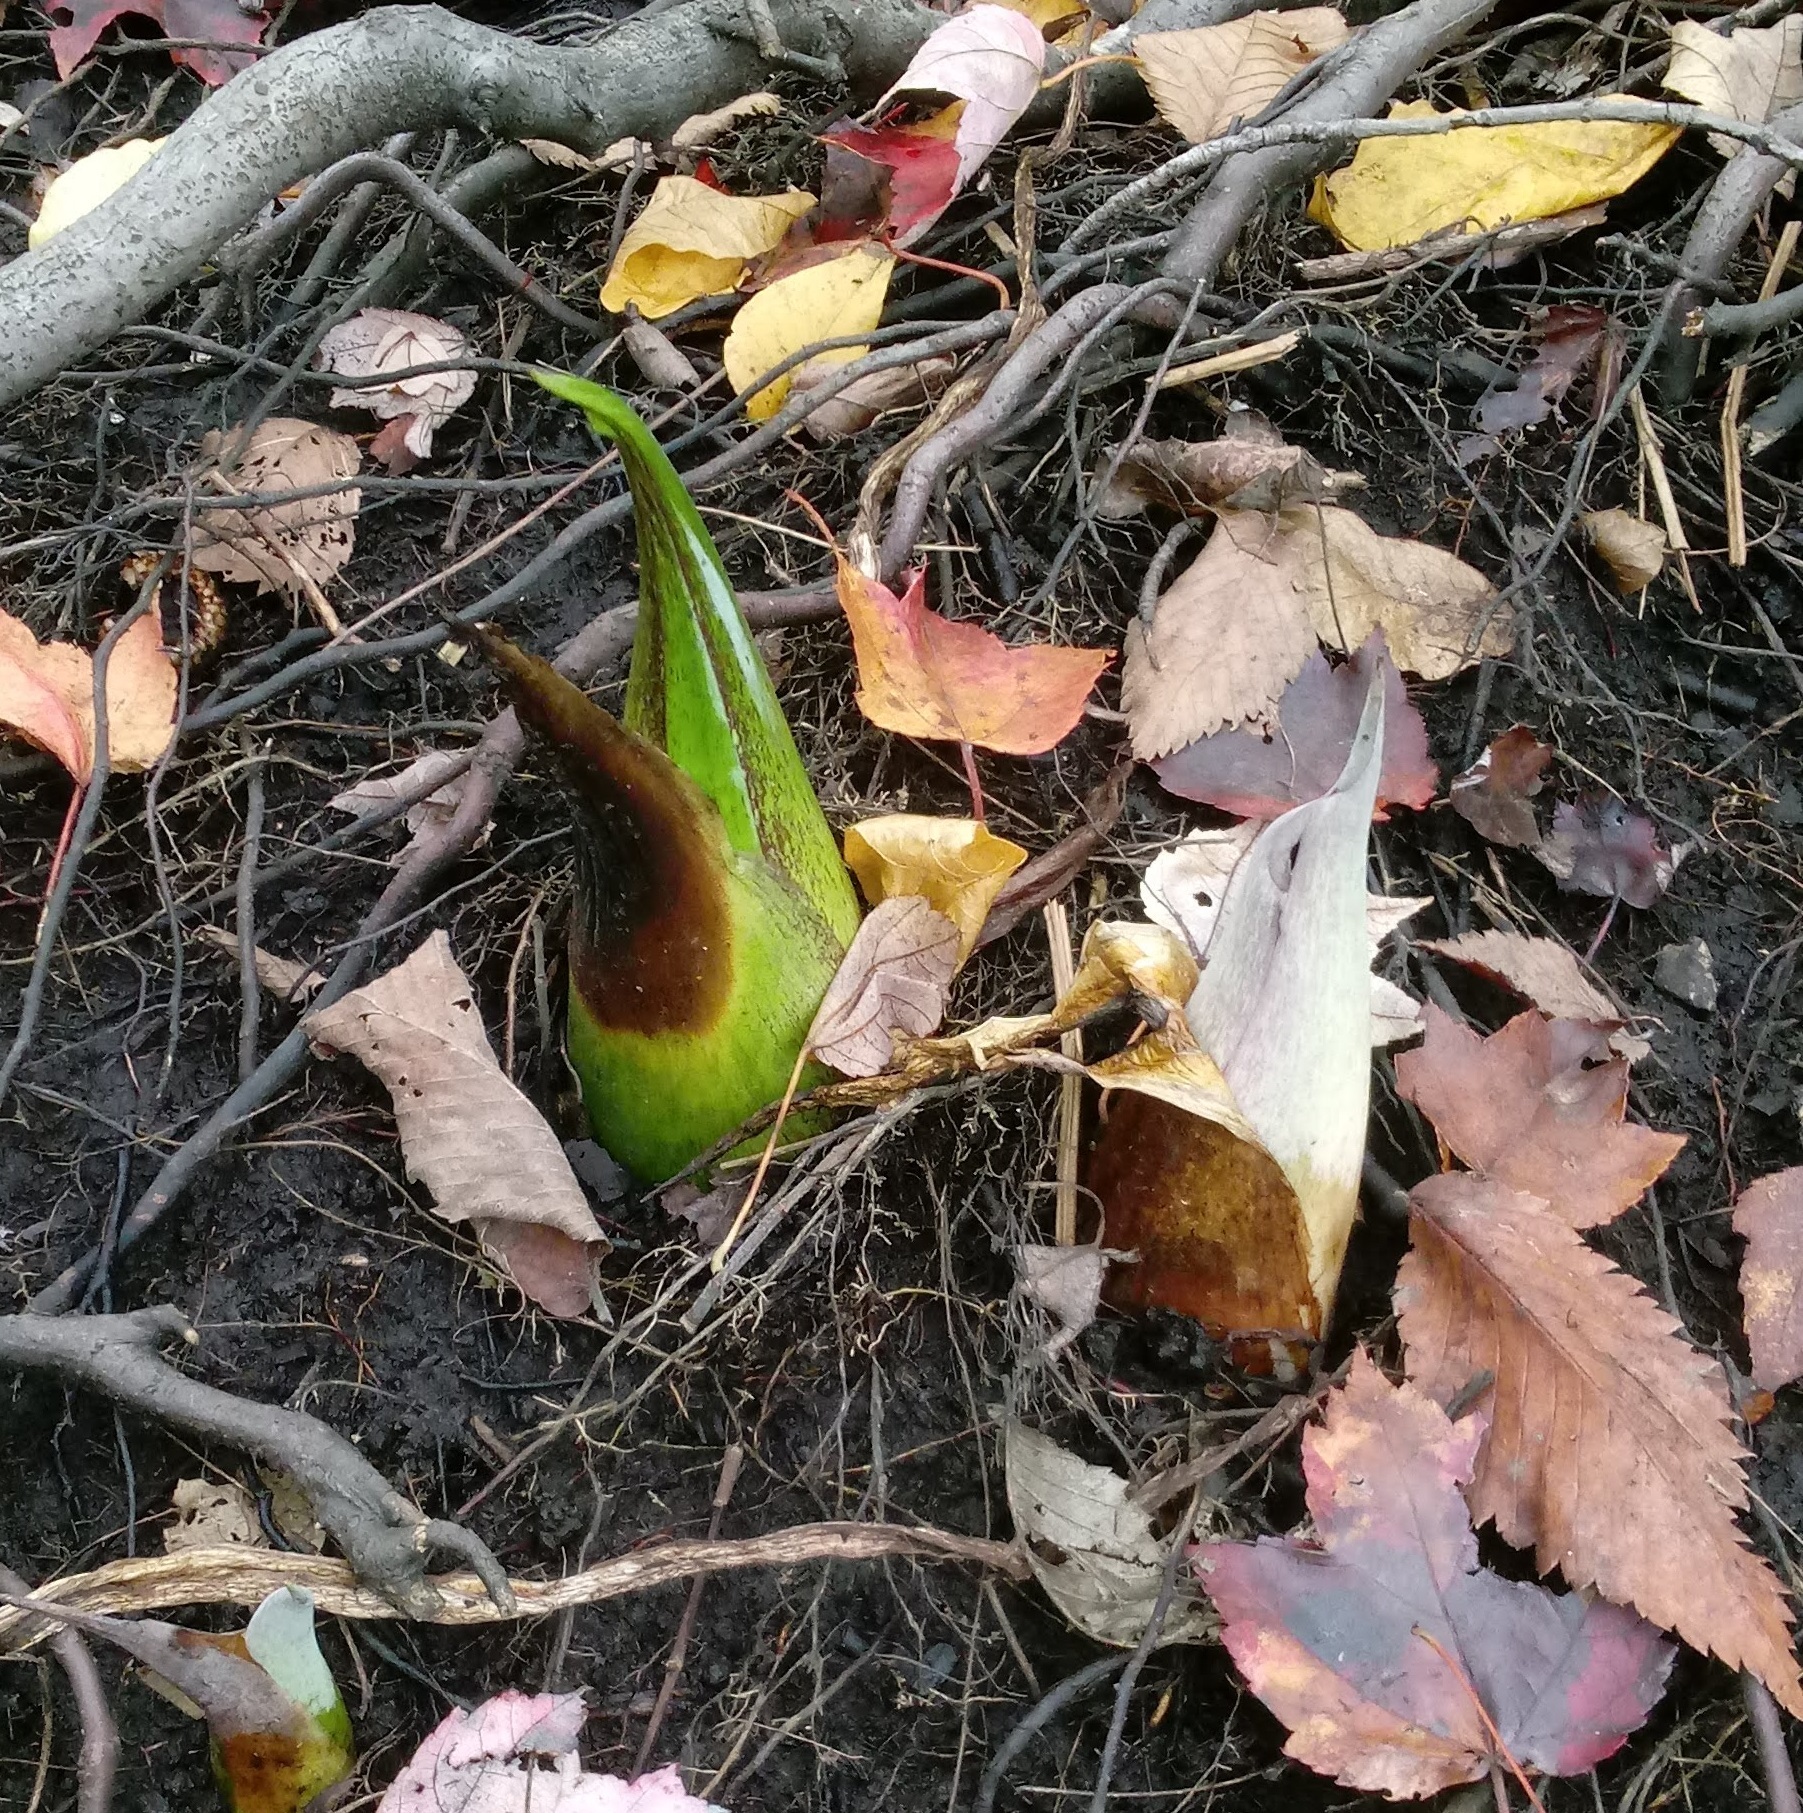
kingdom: Plantae
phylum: Tracheophyta
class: Liliopsida
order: Alismatales
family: Araceae
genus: Symplocarpus
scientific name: Symplocarpus foetidus
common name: Eastern skunk cabbage
